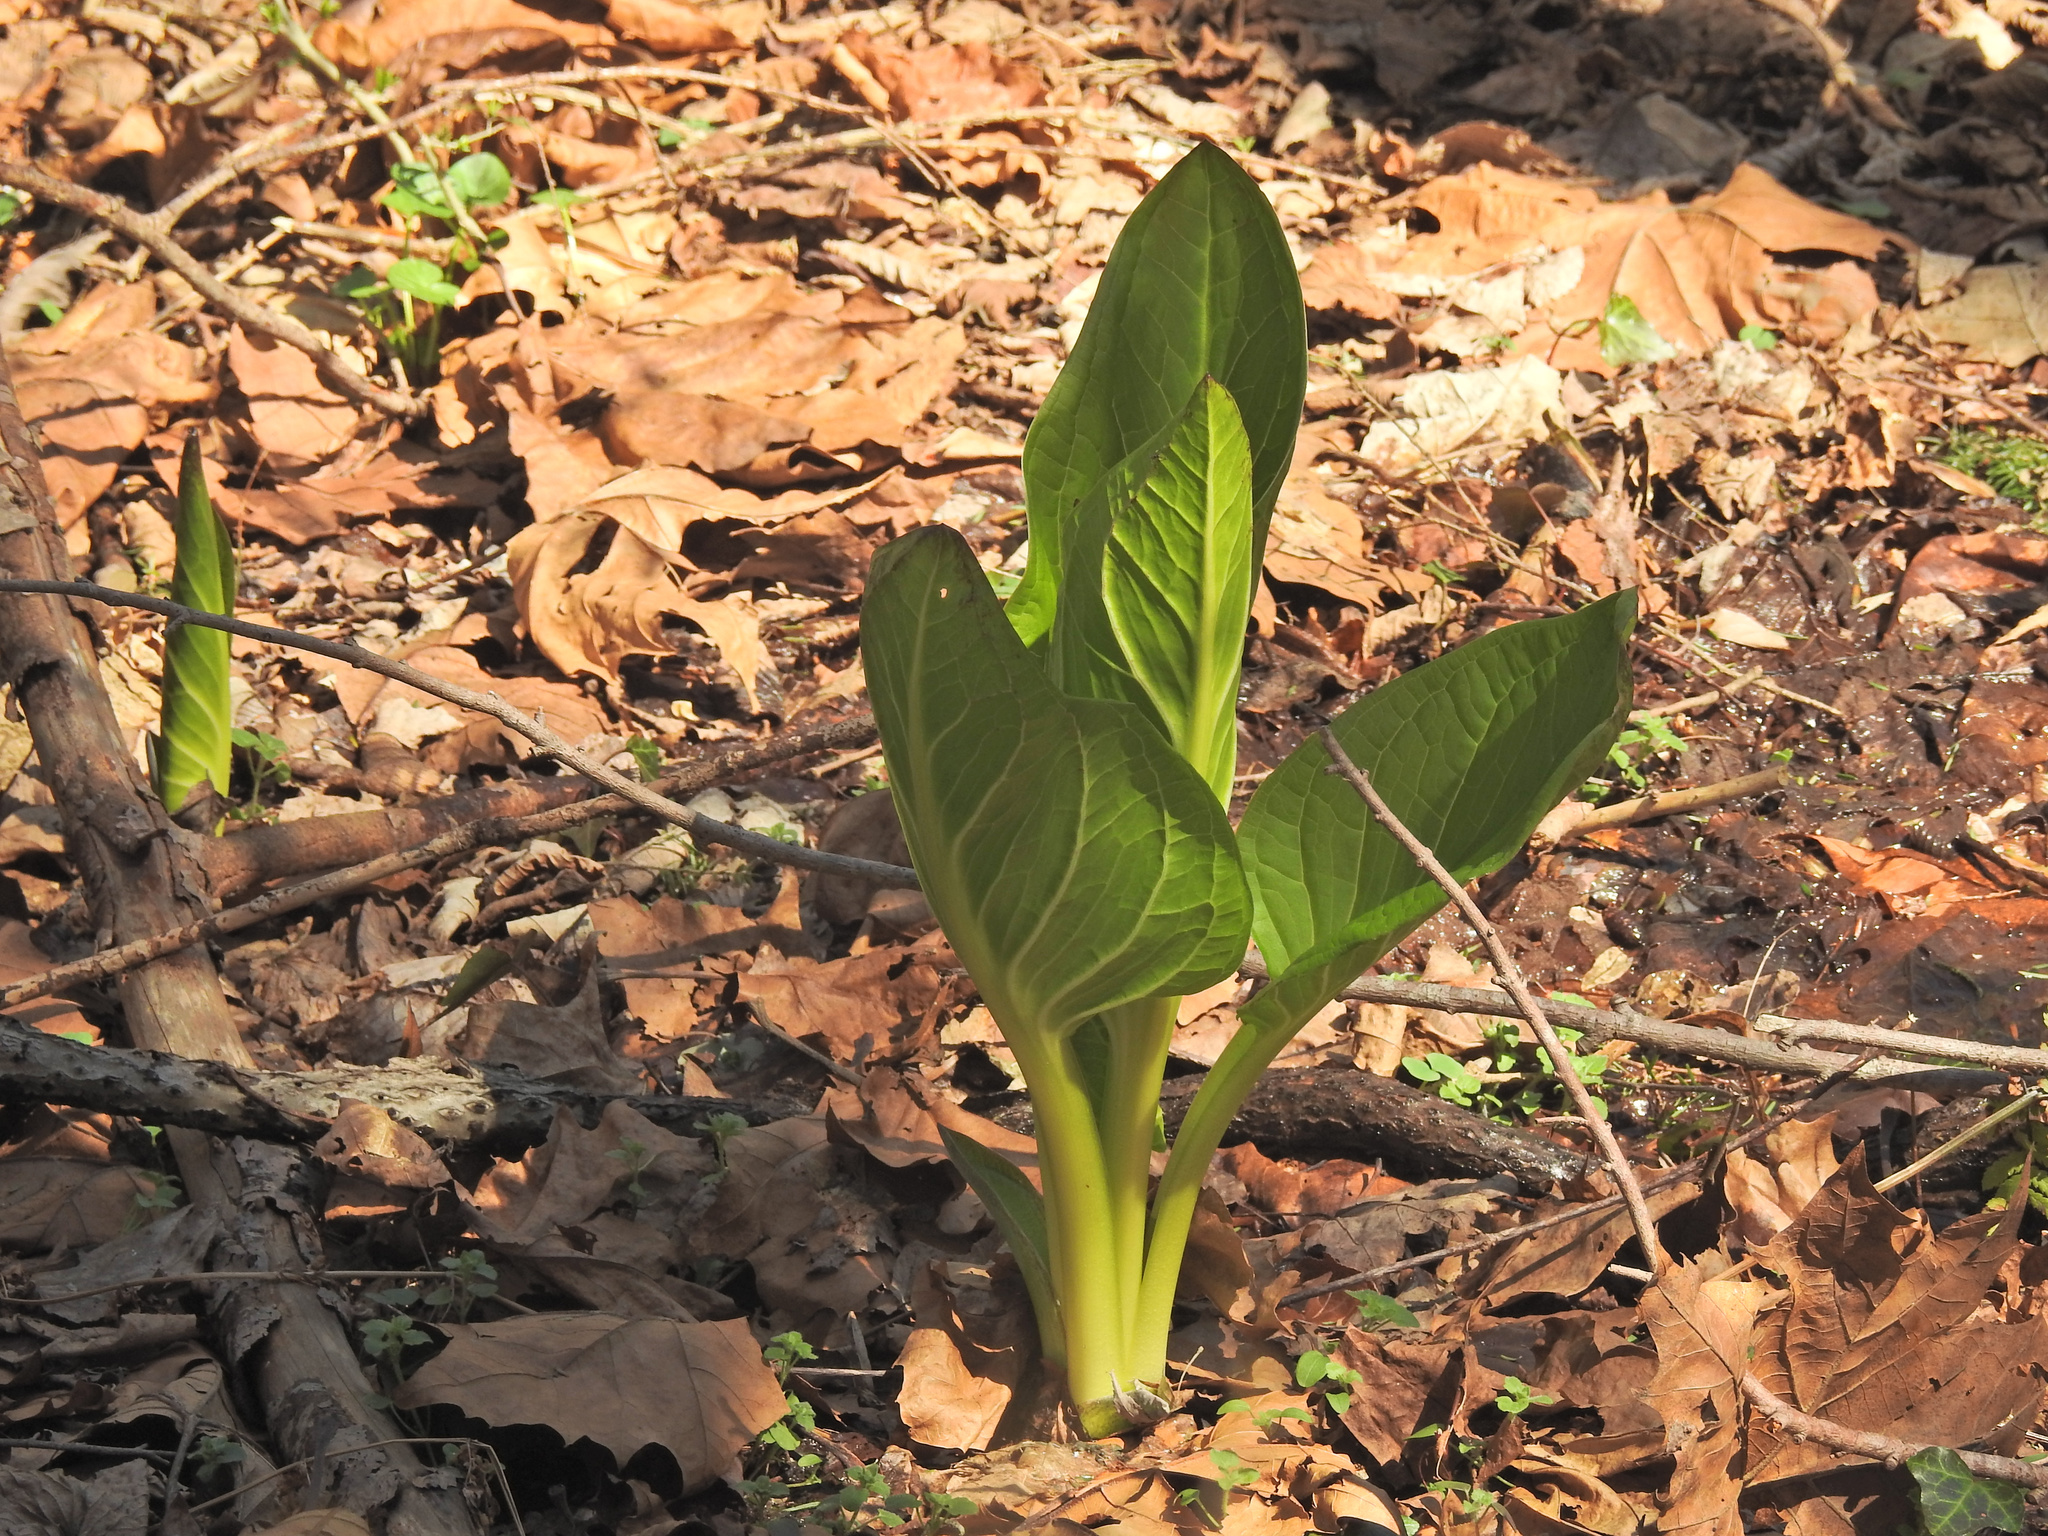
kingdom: Plantae
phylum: Tracheophyta
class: Liliopsida
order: Alismatales
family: Araceae
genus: Symplocarpus
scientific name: Symplocarpus foetidus
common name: Eastern skunk cabbage
